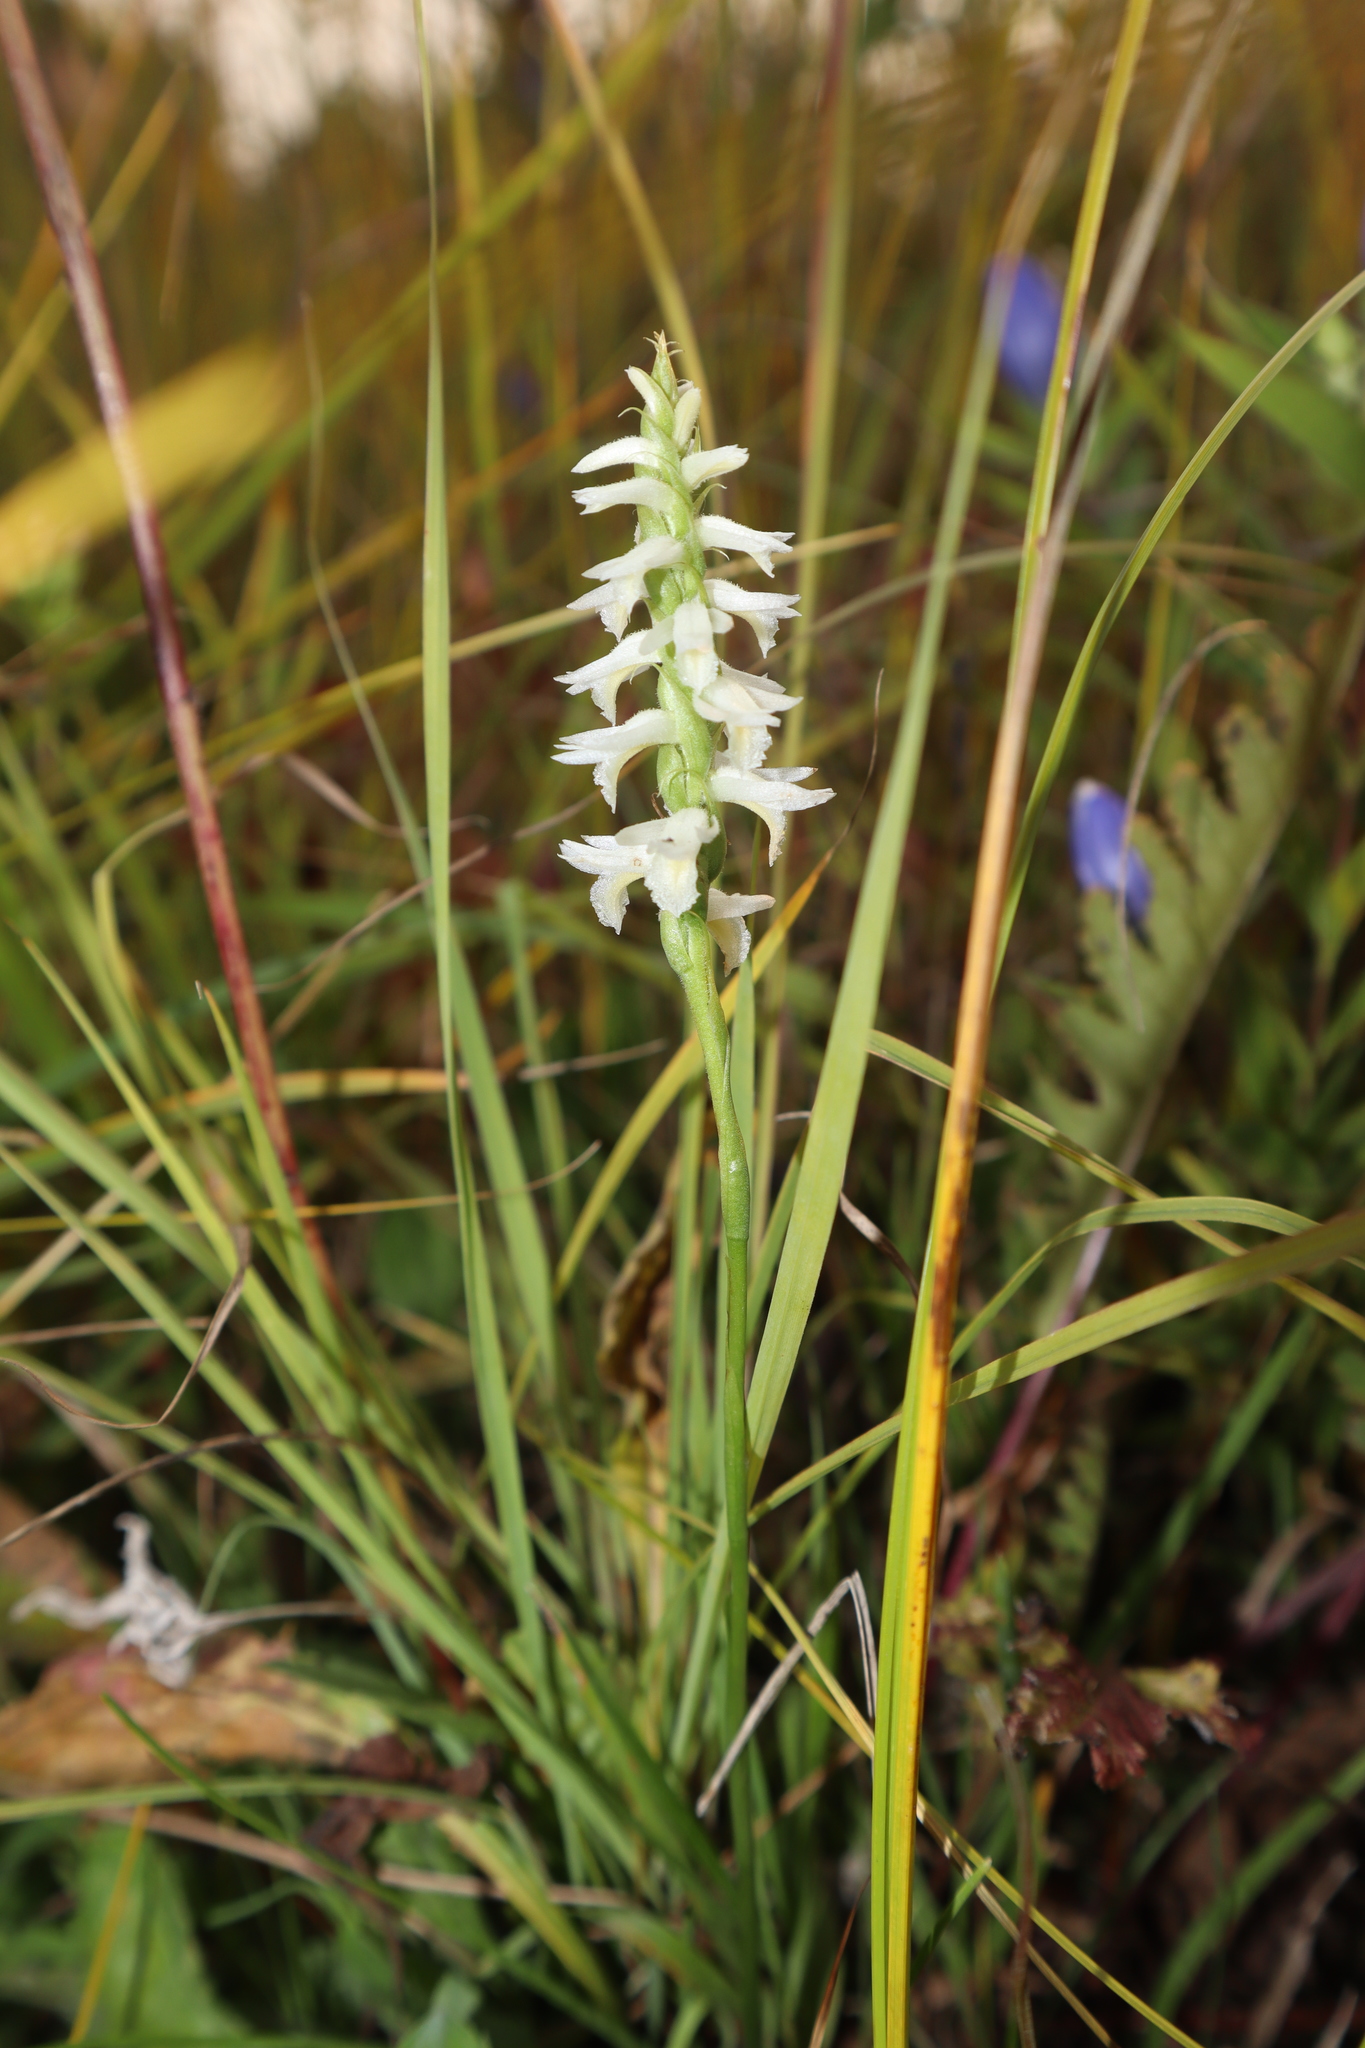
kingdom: Plantae
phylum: Tracheophyta
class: Liliopsida
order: Asparagales
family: Orchidaceae
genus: Spiranthes
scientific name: Spiranthes magnicamporum
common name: Great plains ladies'-tresses
